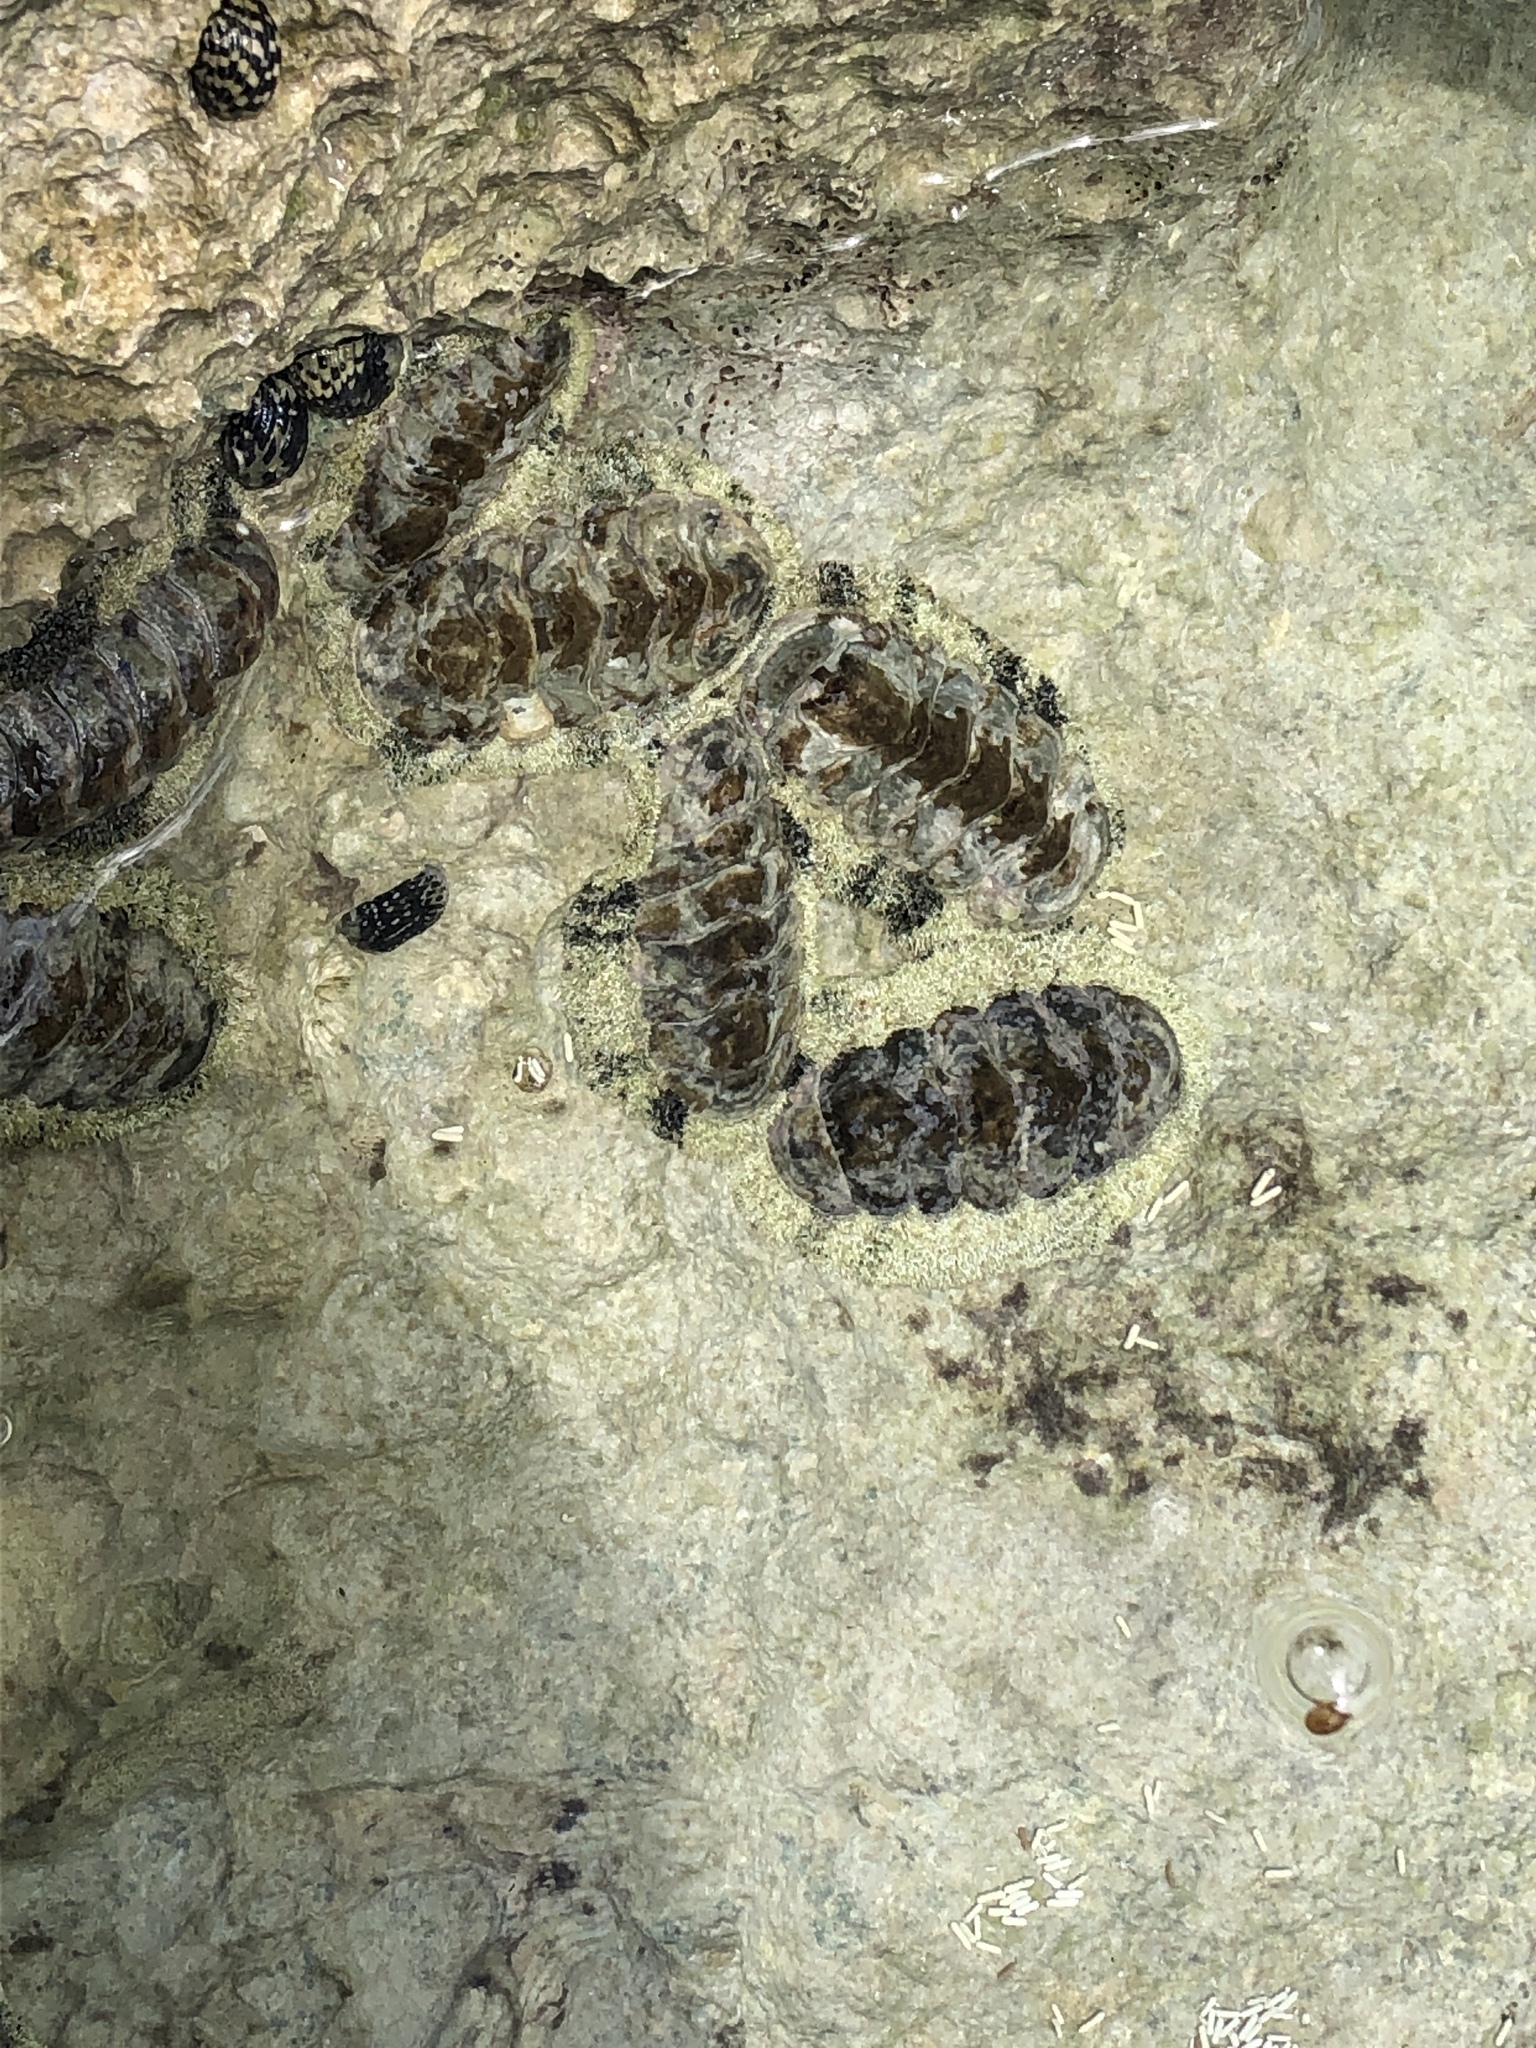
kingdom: Animalia
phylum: Mollusca
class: Polyplacophora
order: Chitonida
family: Chitonidae
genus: Acanthopleura
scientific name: Acanthopleura granulata
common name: West indian fuzzy chiton
